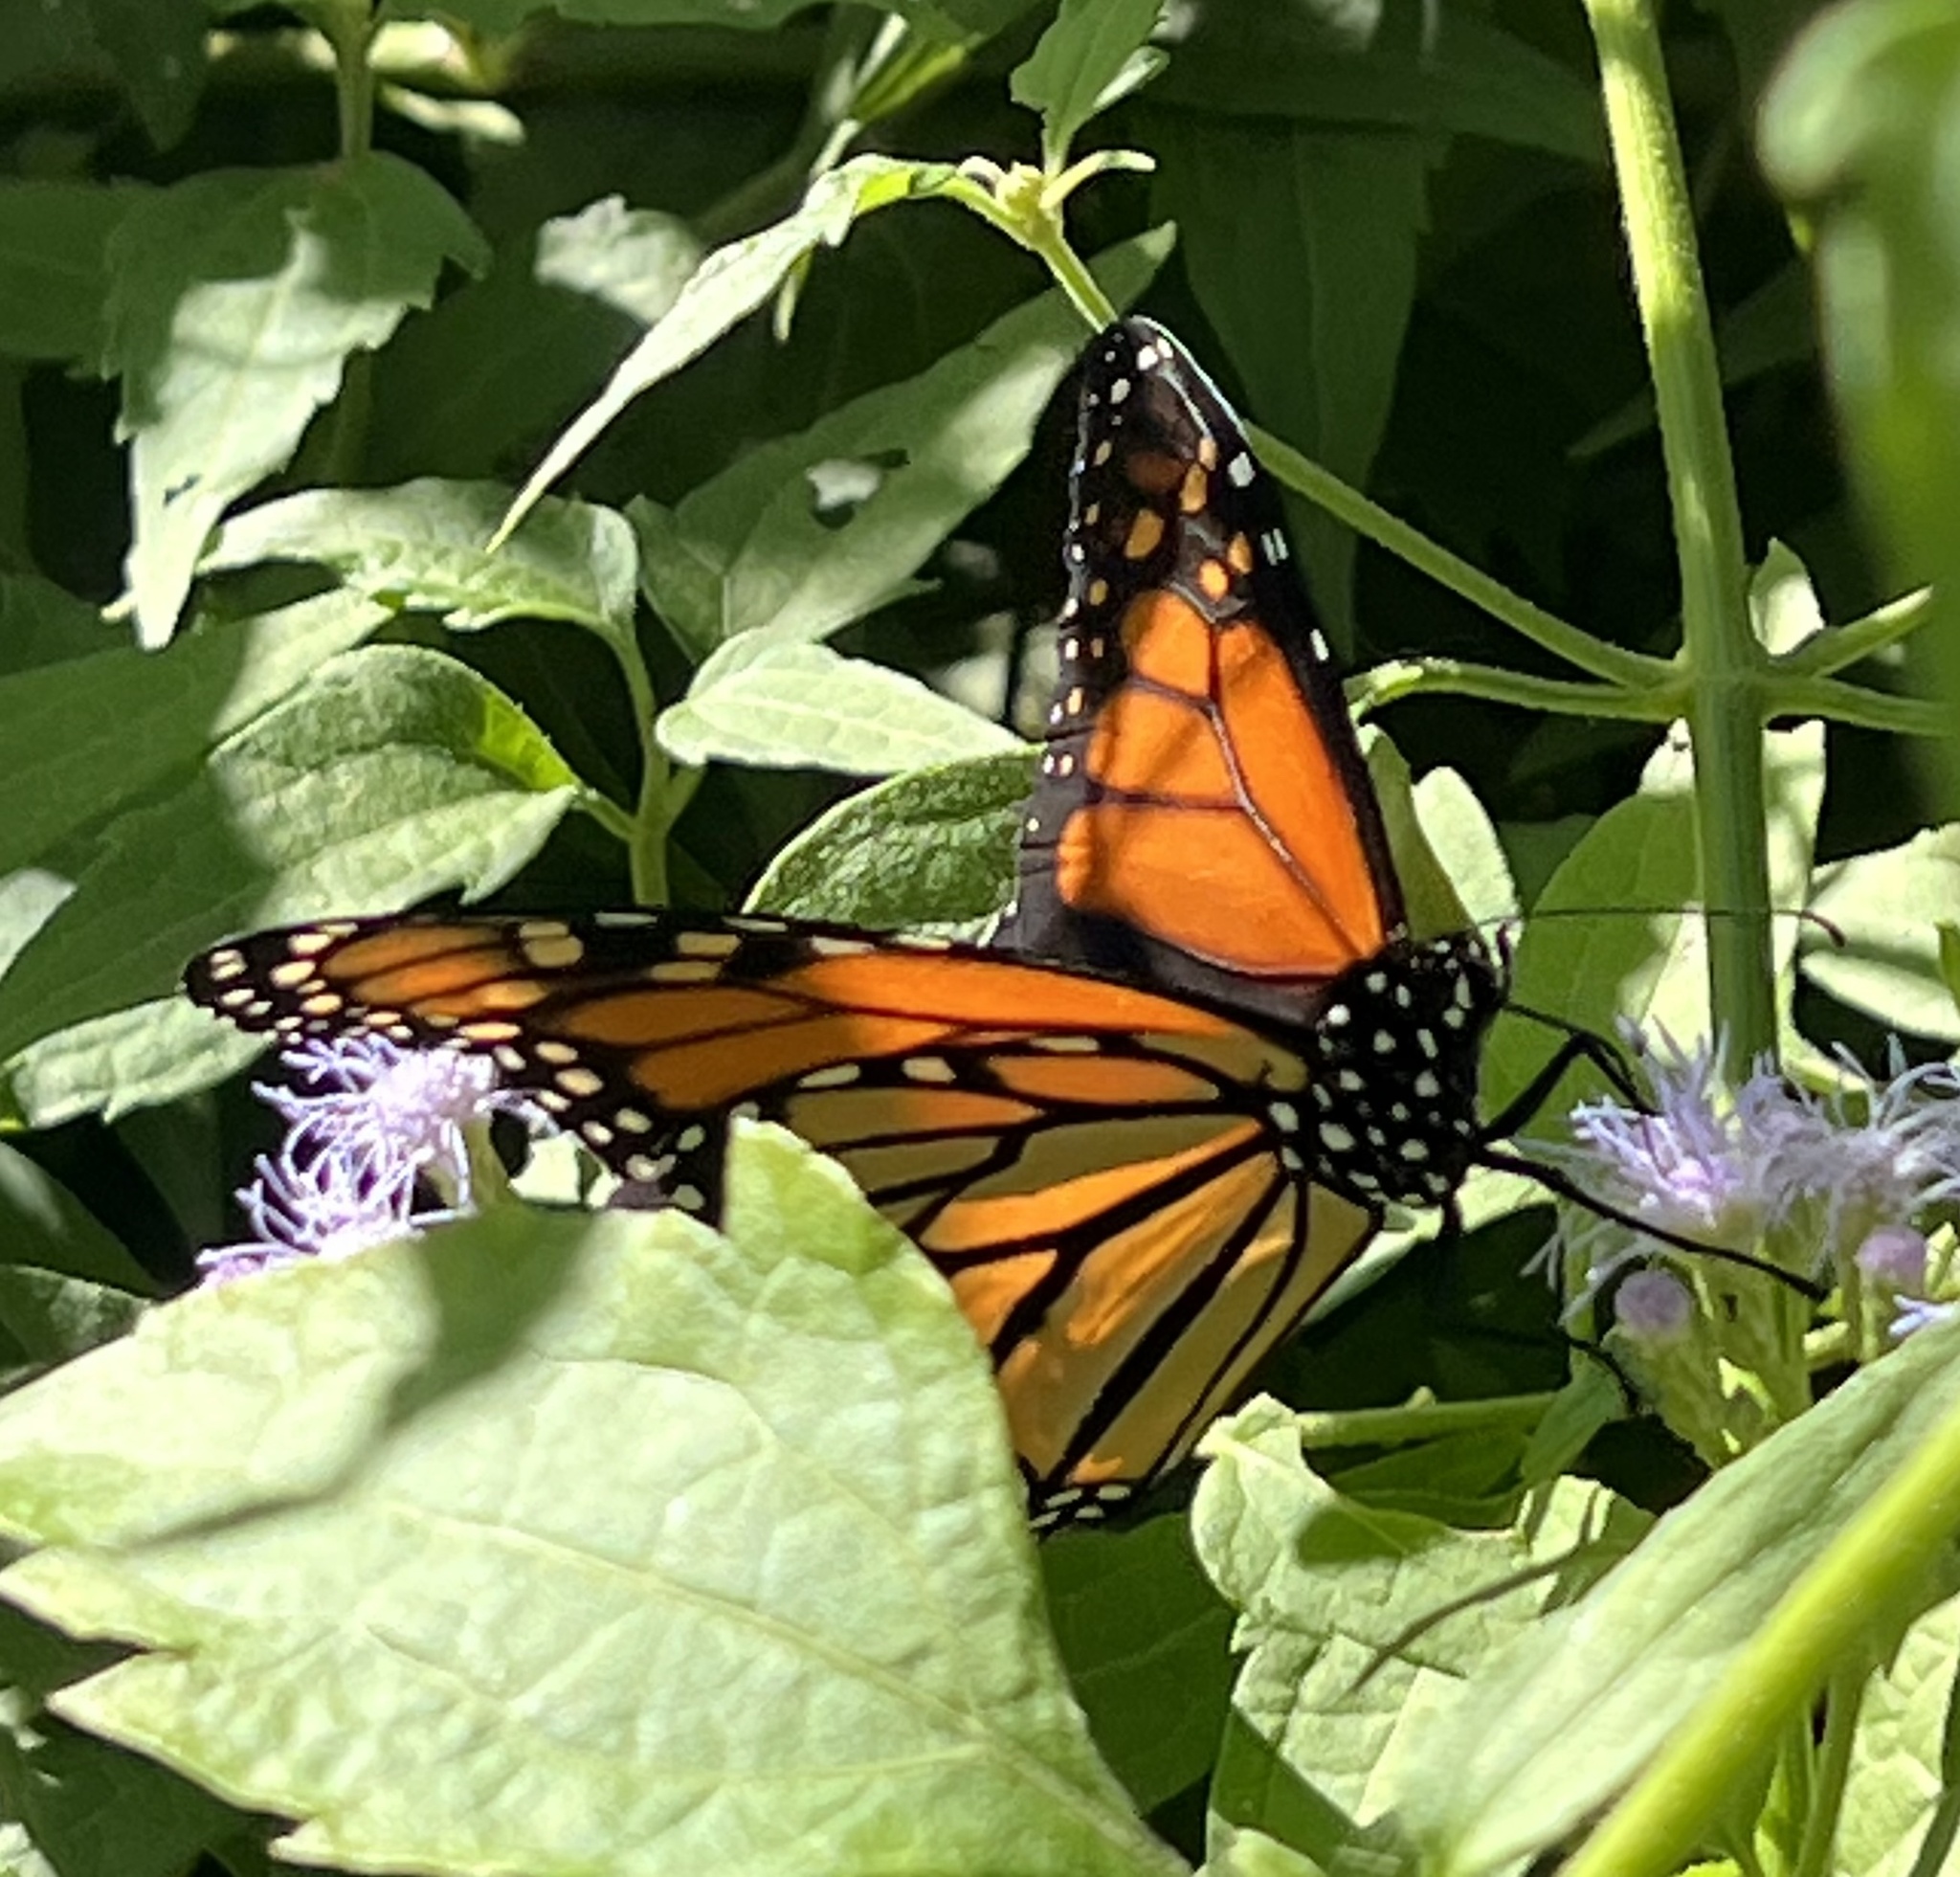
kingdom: Animalia
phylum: Arthropoda
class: Insecta
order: Lepidoptera
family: Nymphalidae
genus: Danaus
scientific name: Danaus plexippus
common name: Monarch
